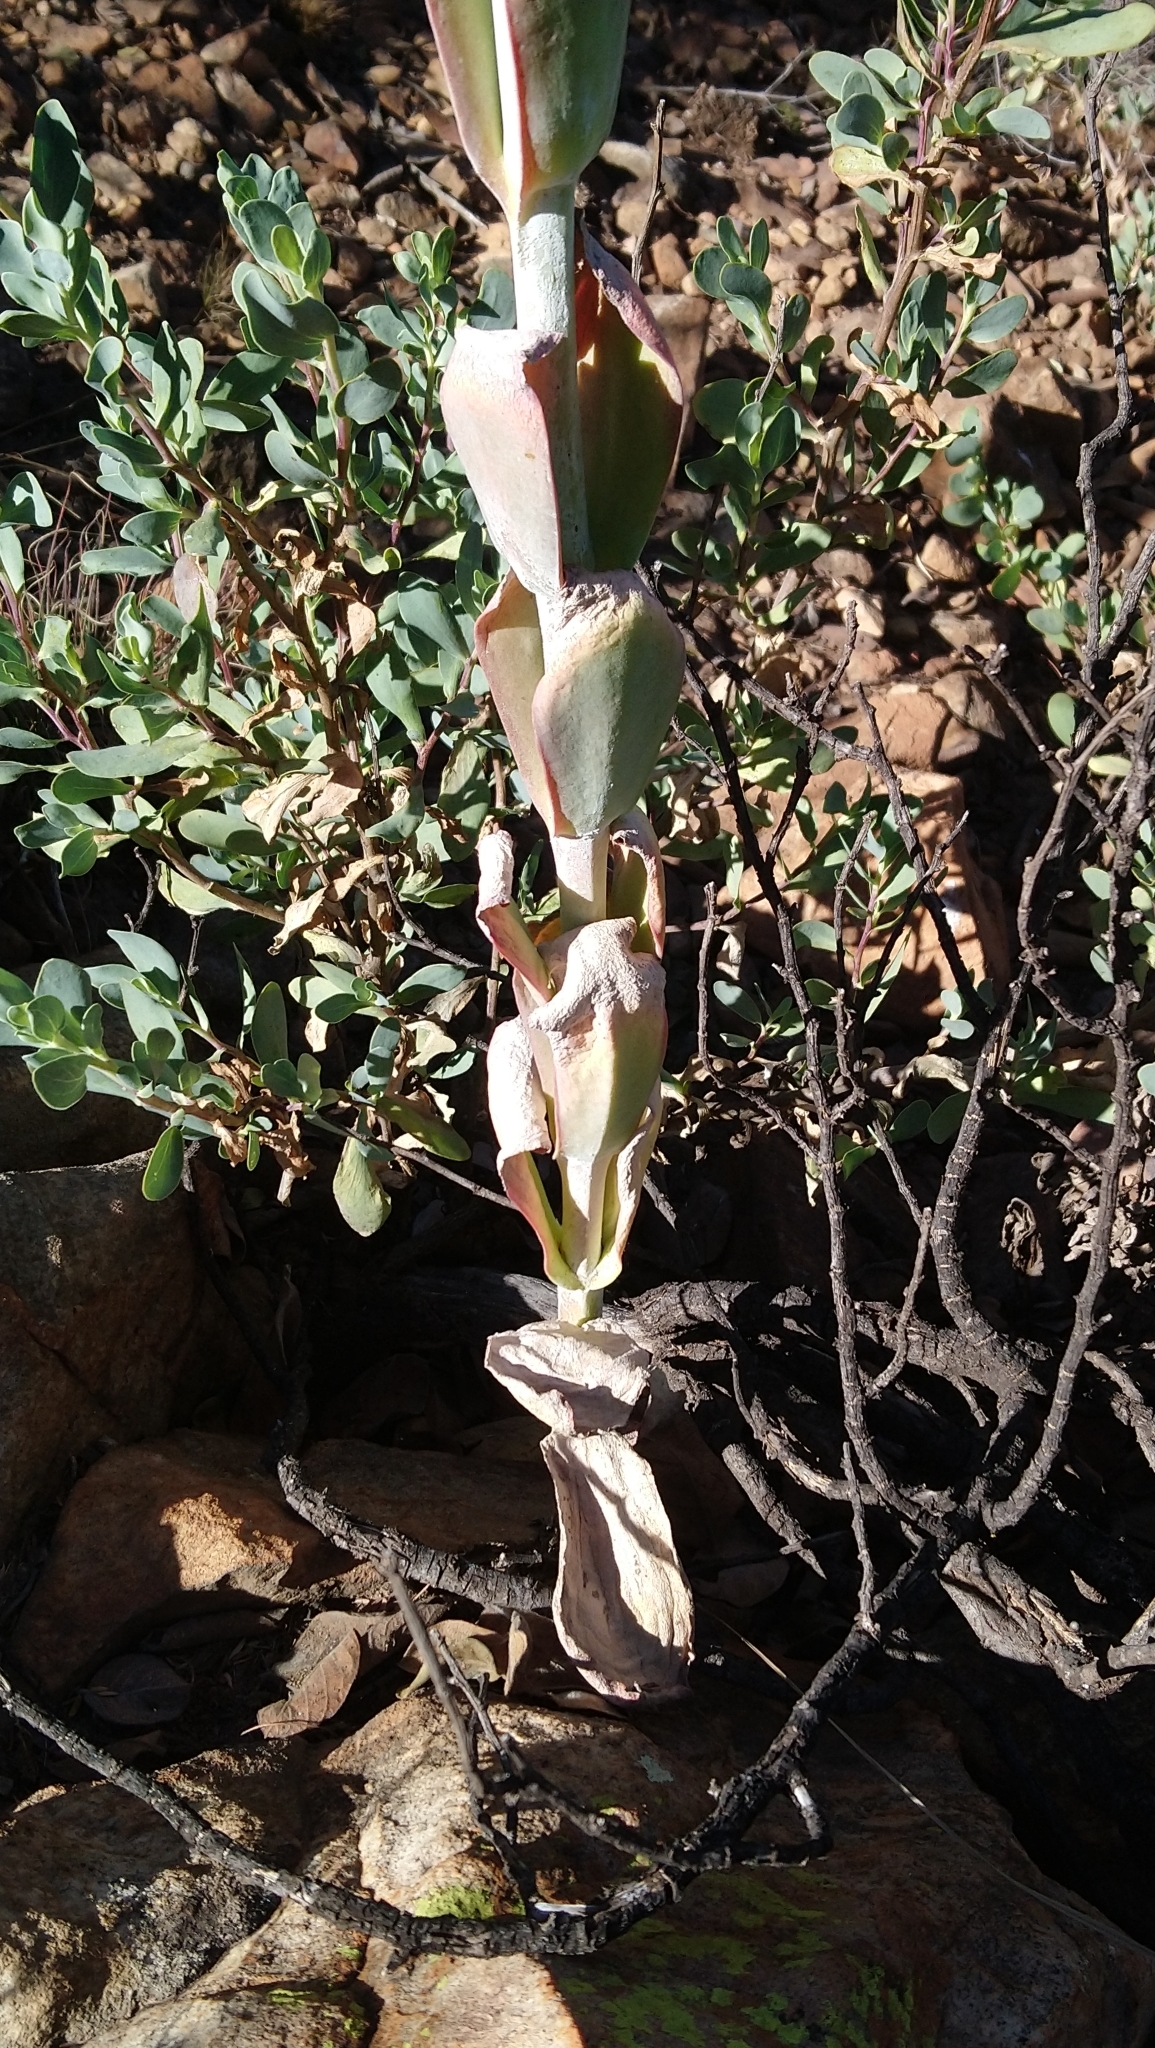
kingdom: Plantae
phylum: Tracheophyta
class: Magnoliopsida
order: Saxifragales
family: Crassulaceae
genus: Kalanchoe
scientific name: Kalanchoe thyrsiflora
